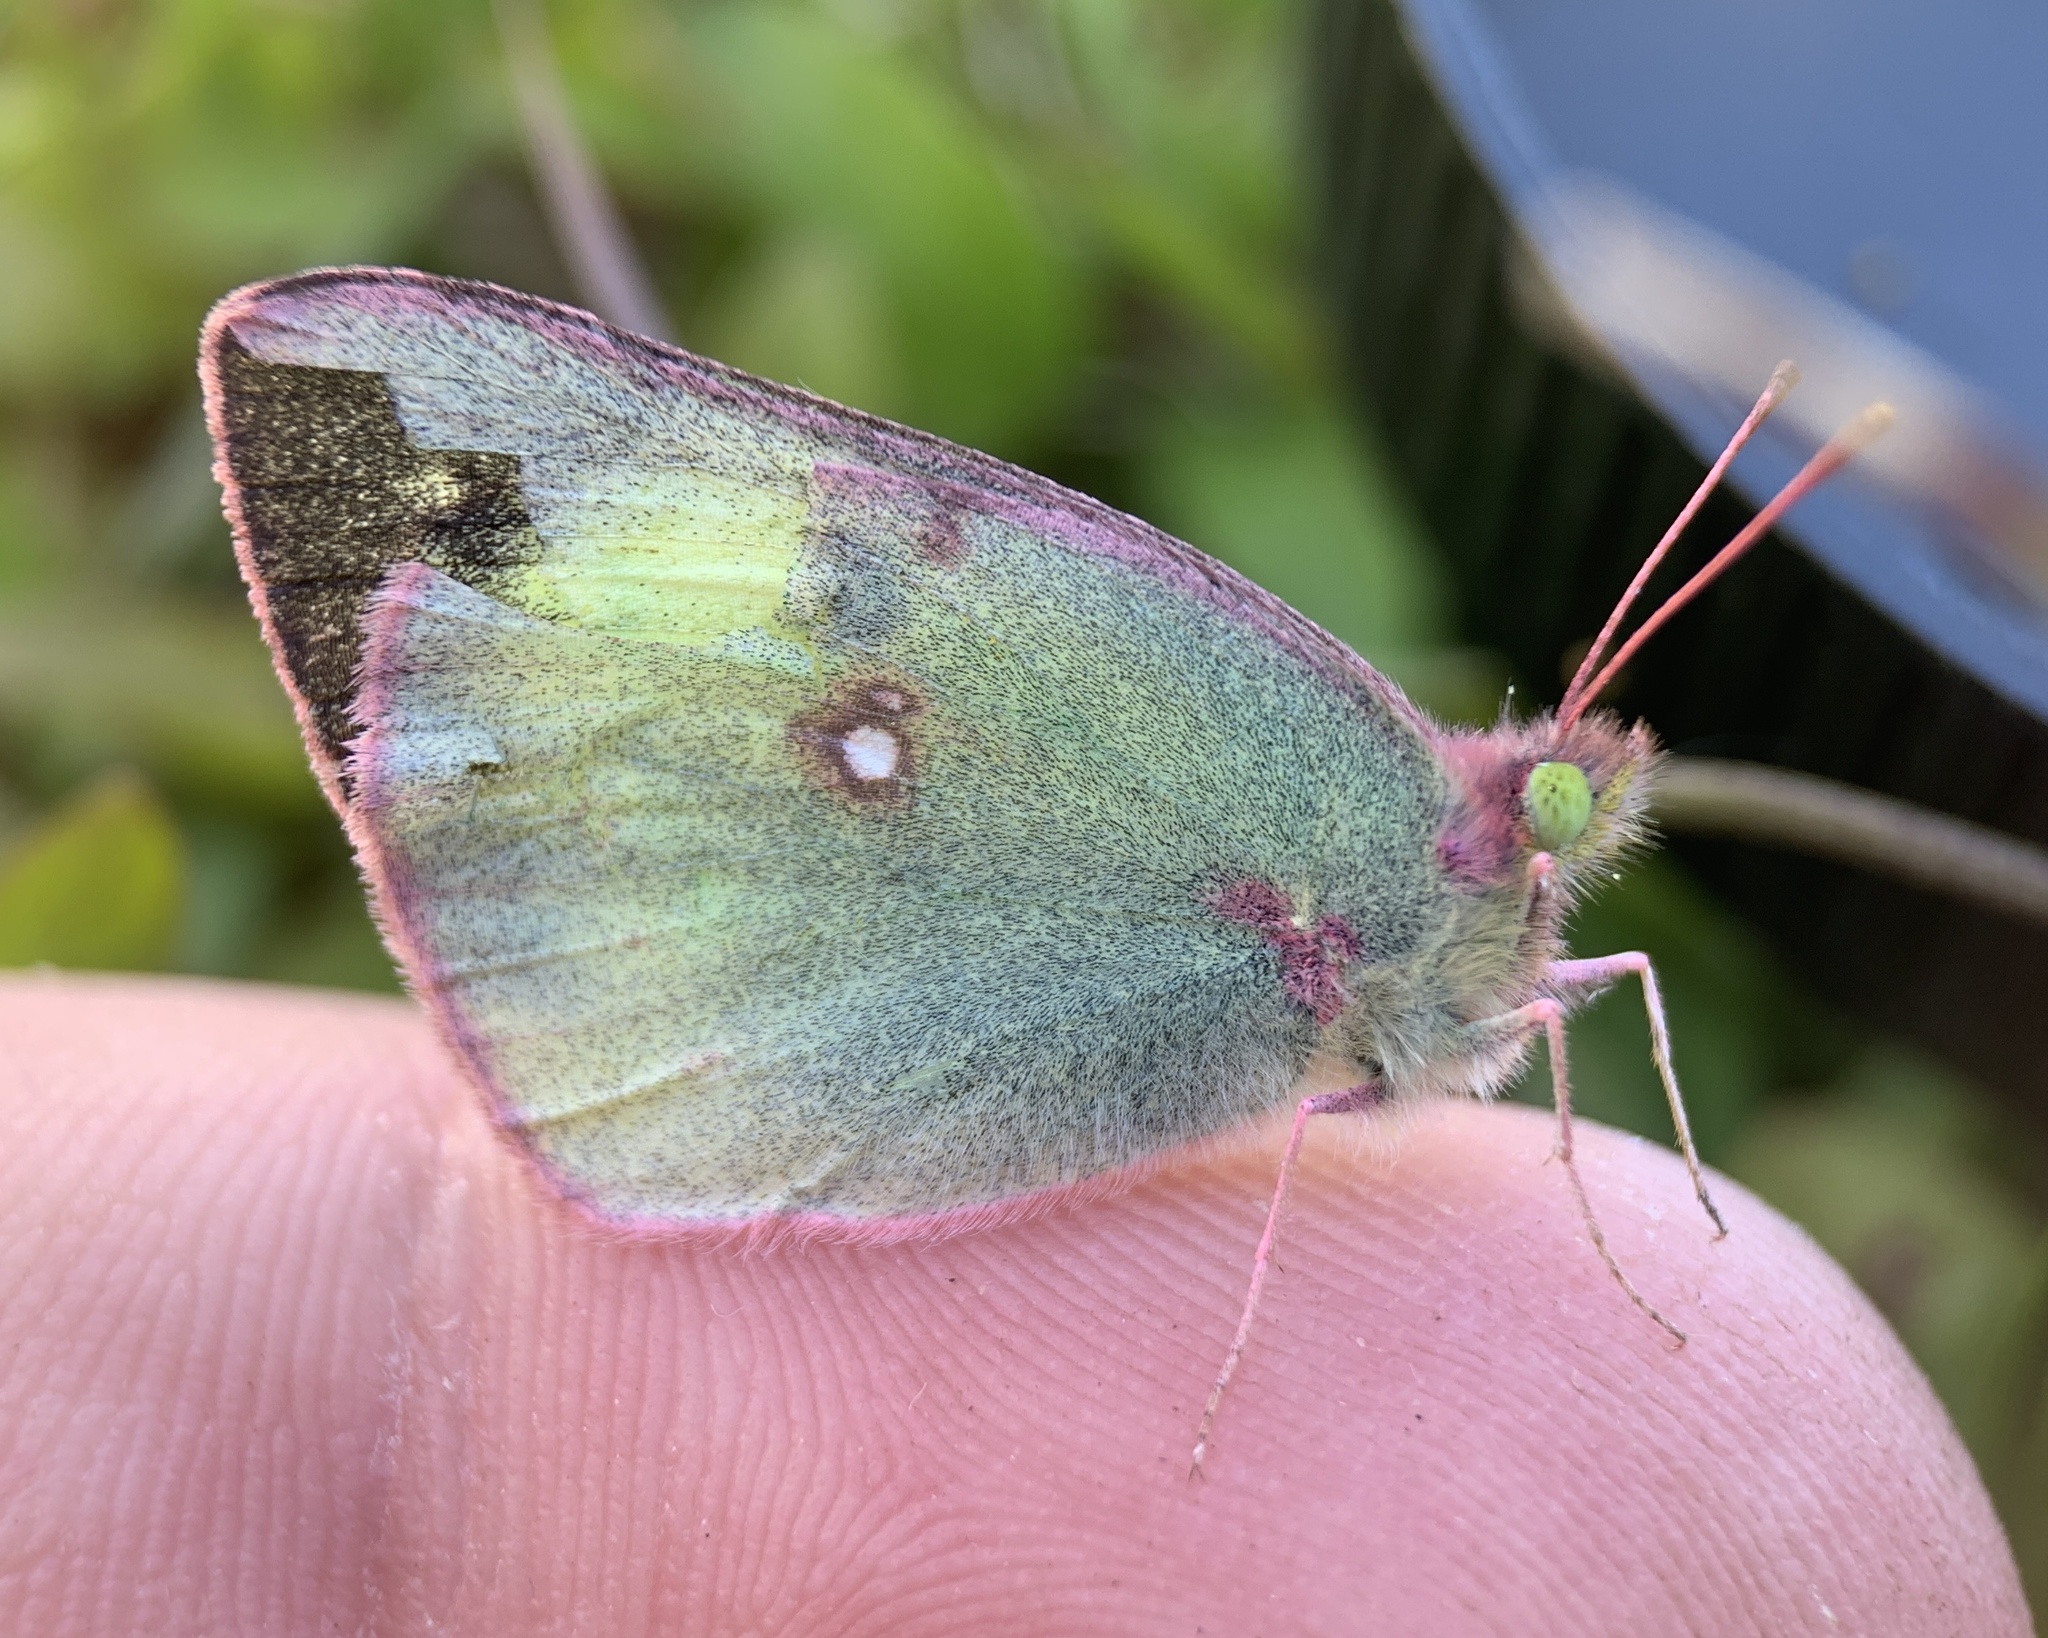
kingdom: Animalia
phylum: Arthropoda
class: Insecta
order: Lepidoptera
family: Pieridae
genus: Colias
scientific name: Colias philodice
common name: Clouded sulphur
